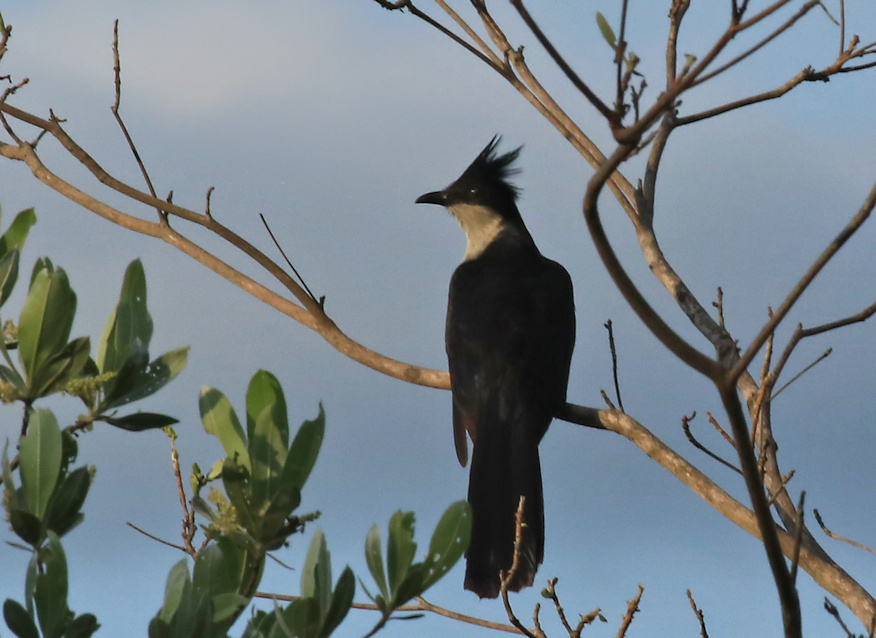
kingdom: Animalia
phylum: Chordata
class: Aves
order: Cuculiformes
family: Cuculidae
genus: Clamator
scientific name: Clamator jacobinus
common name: Jacobin cuckoo
